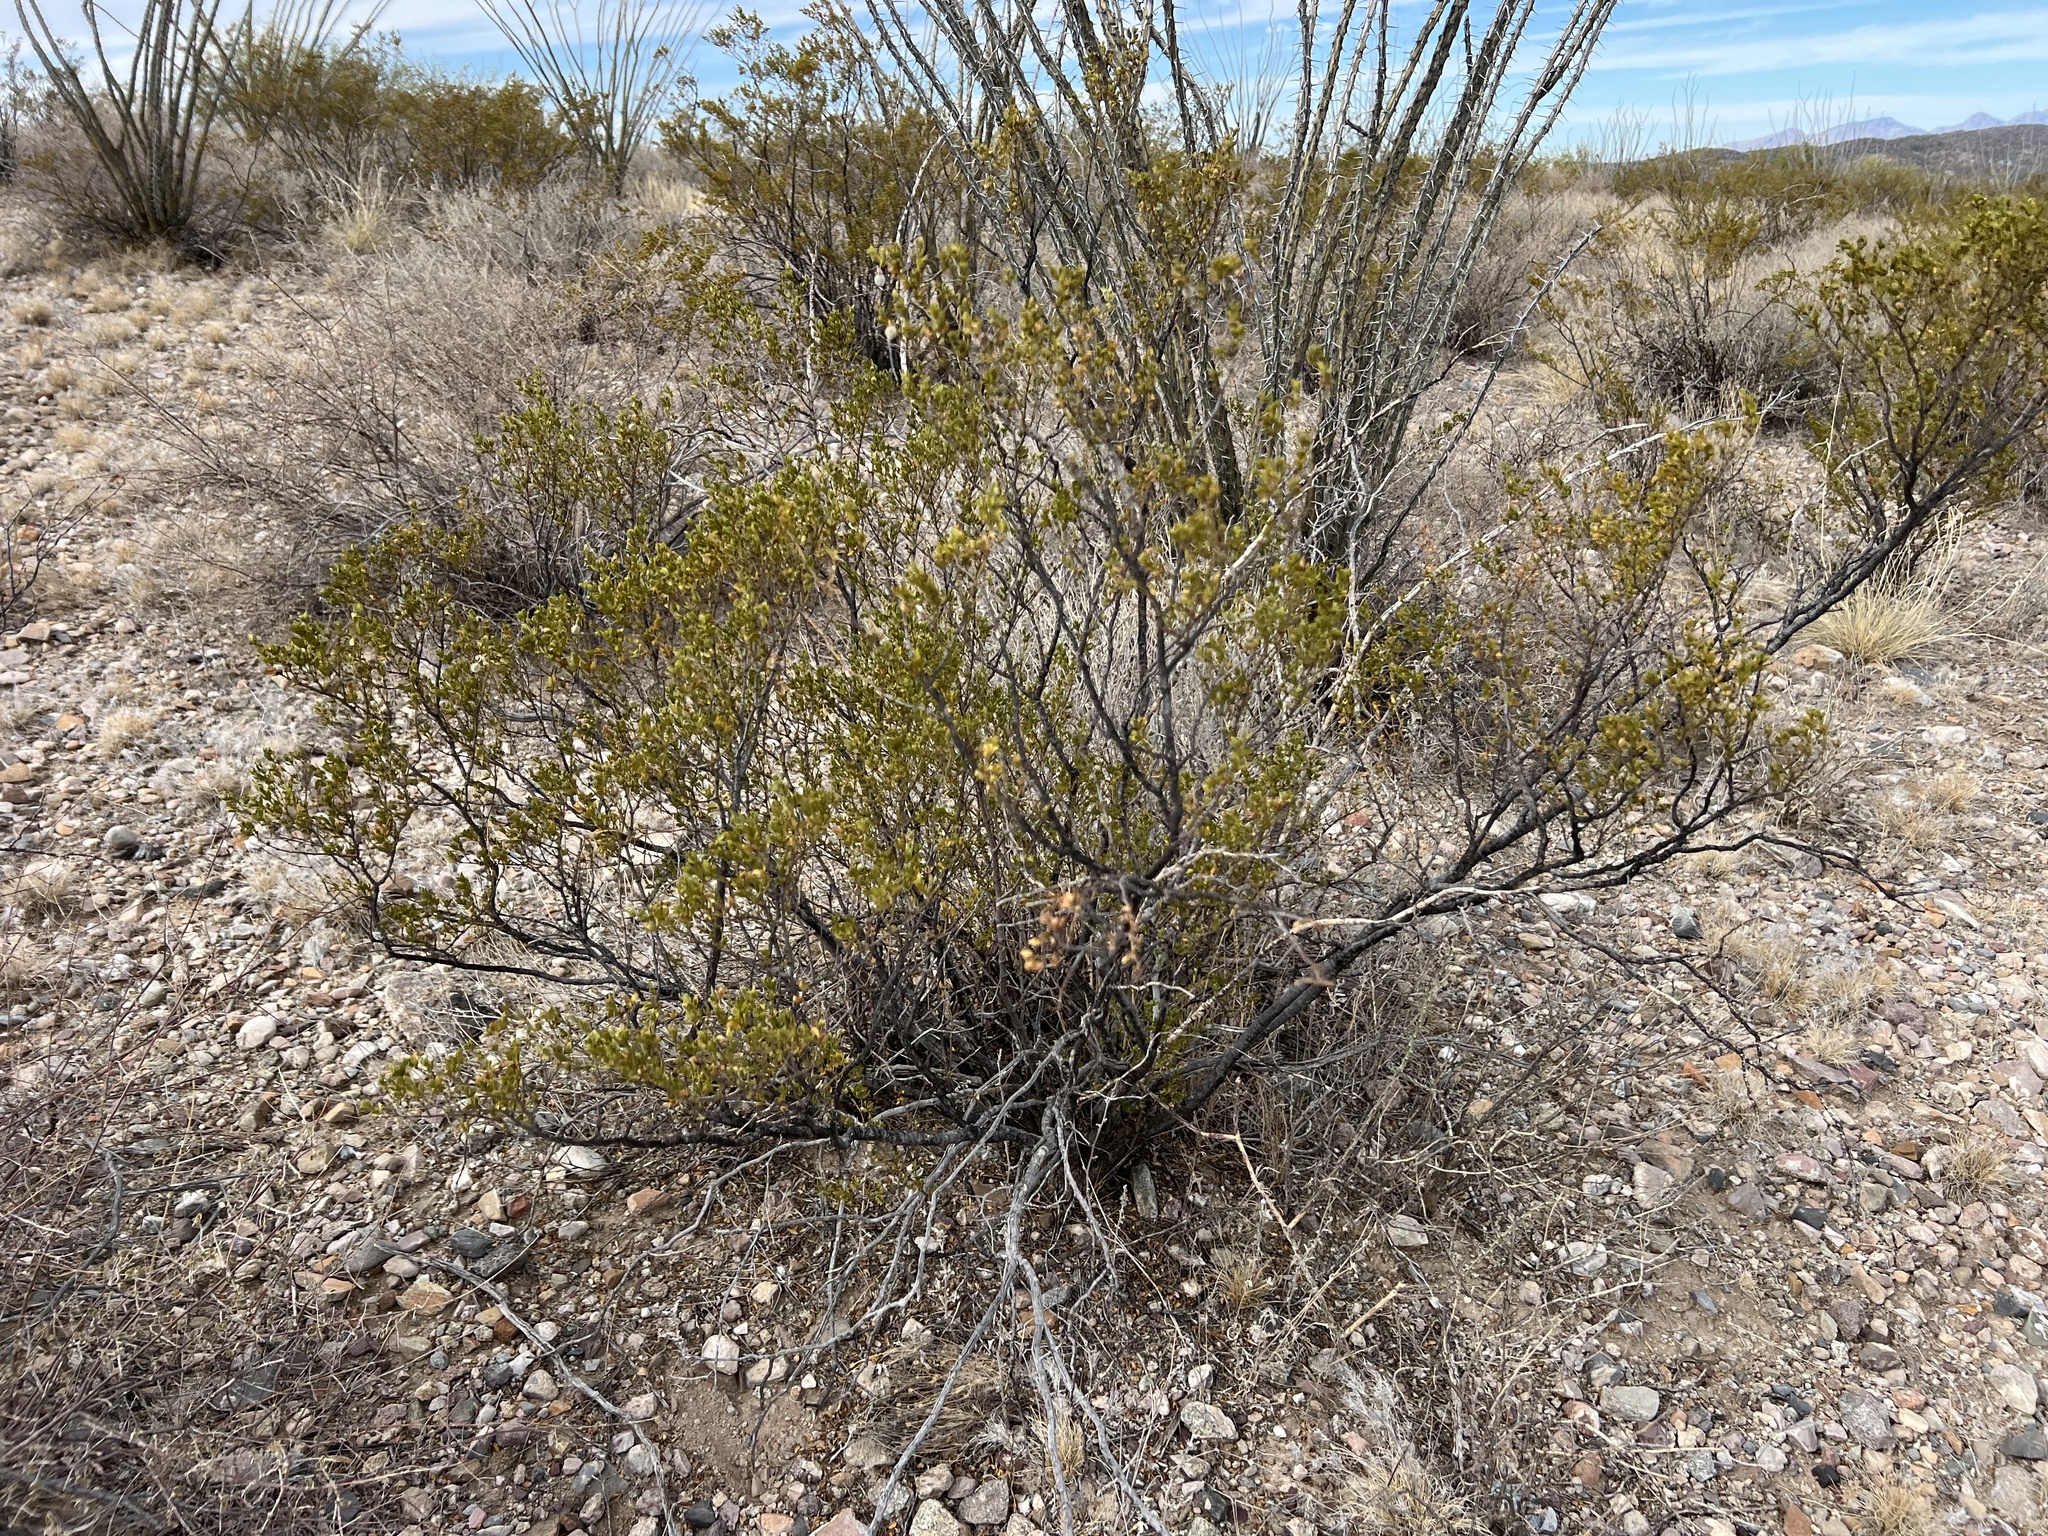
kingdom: Plantae
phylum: Tracheophyta
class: Magnoliopsida
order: Zygophyllales
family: Zygophyllaceae
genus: Larrea
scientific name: Larrea tridentata
